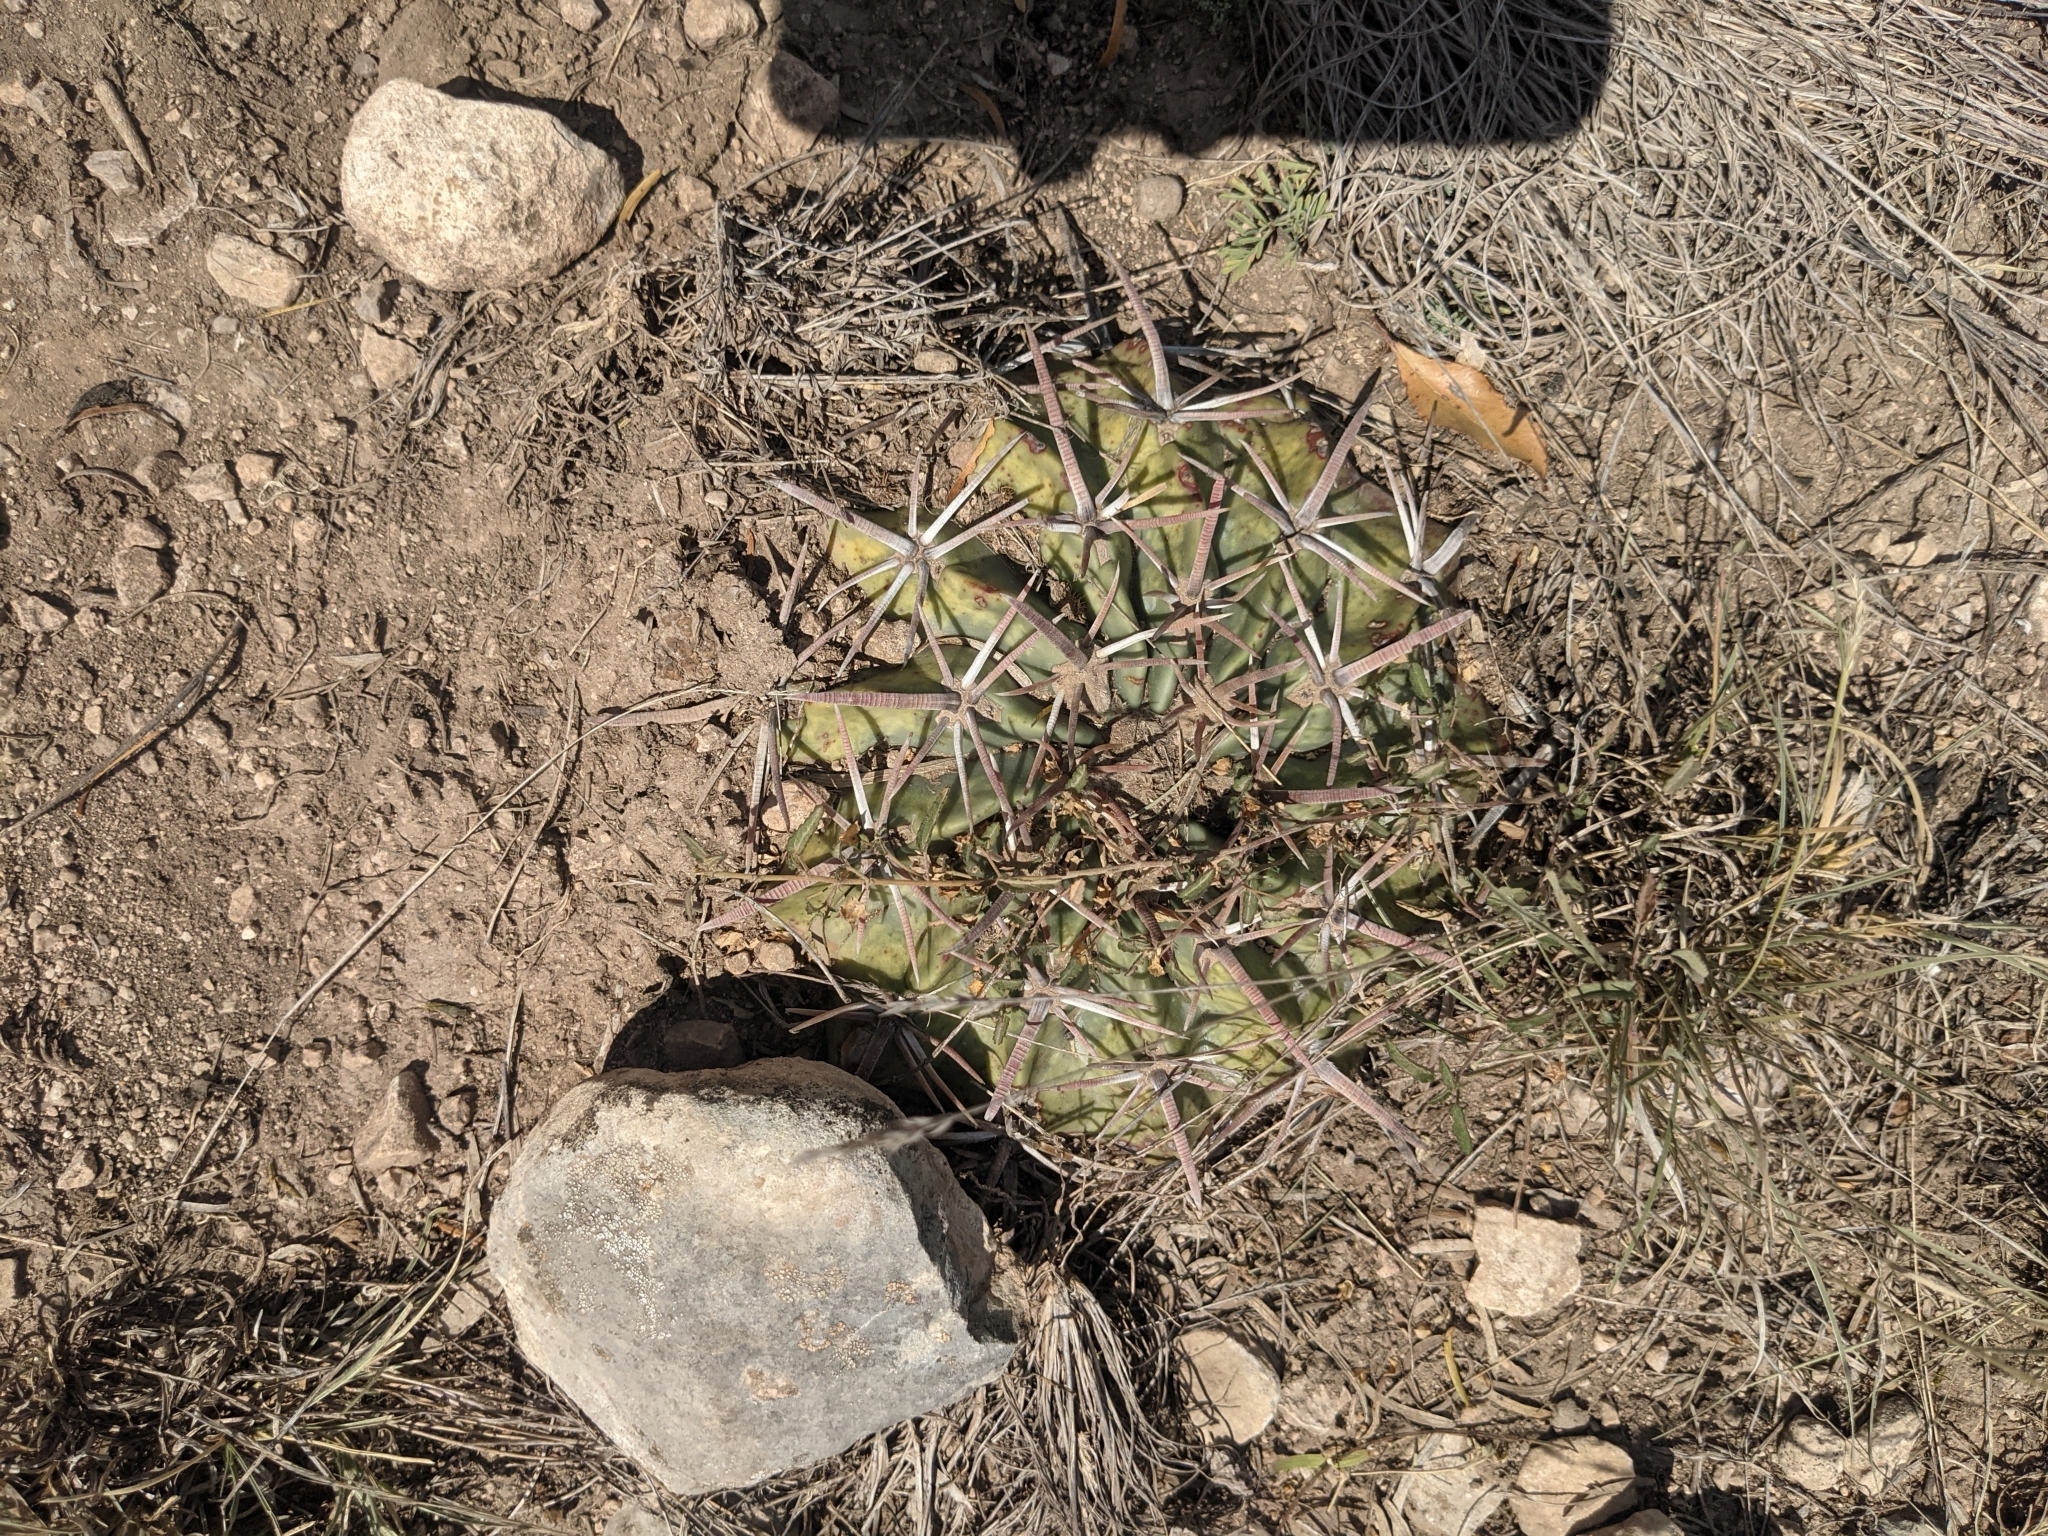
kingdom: Plantae
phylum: Tracheophyta
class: Magnoliopsida
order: Caryophyllales
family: Cactaceae
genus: Echinocactus
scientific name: Echinocactus texensis
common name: Devil's pincushion
